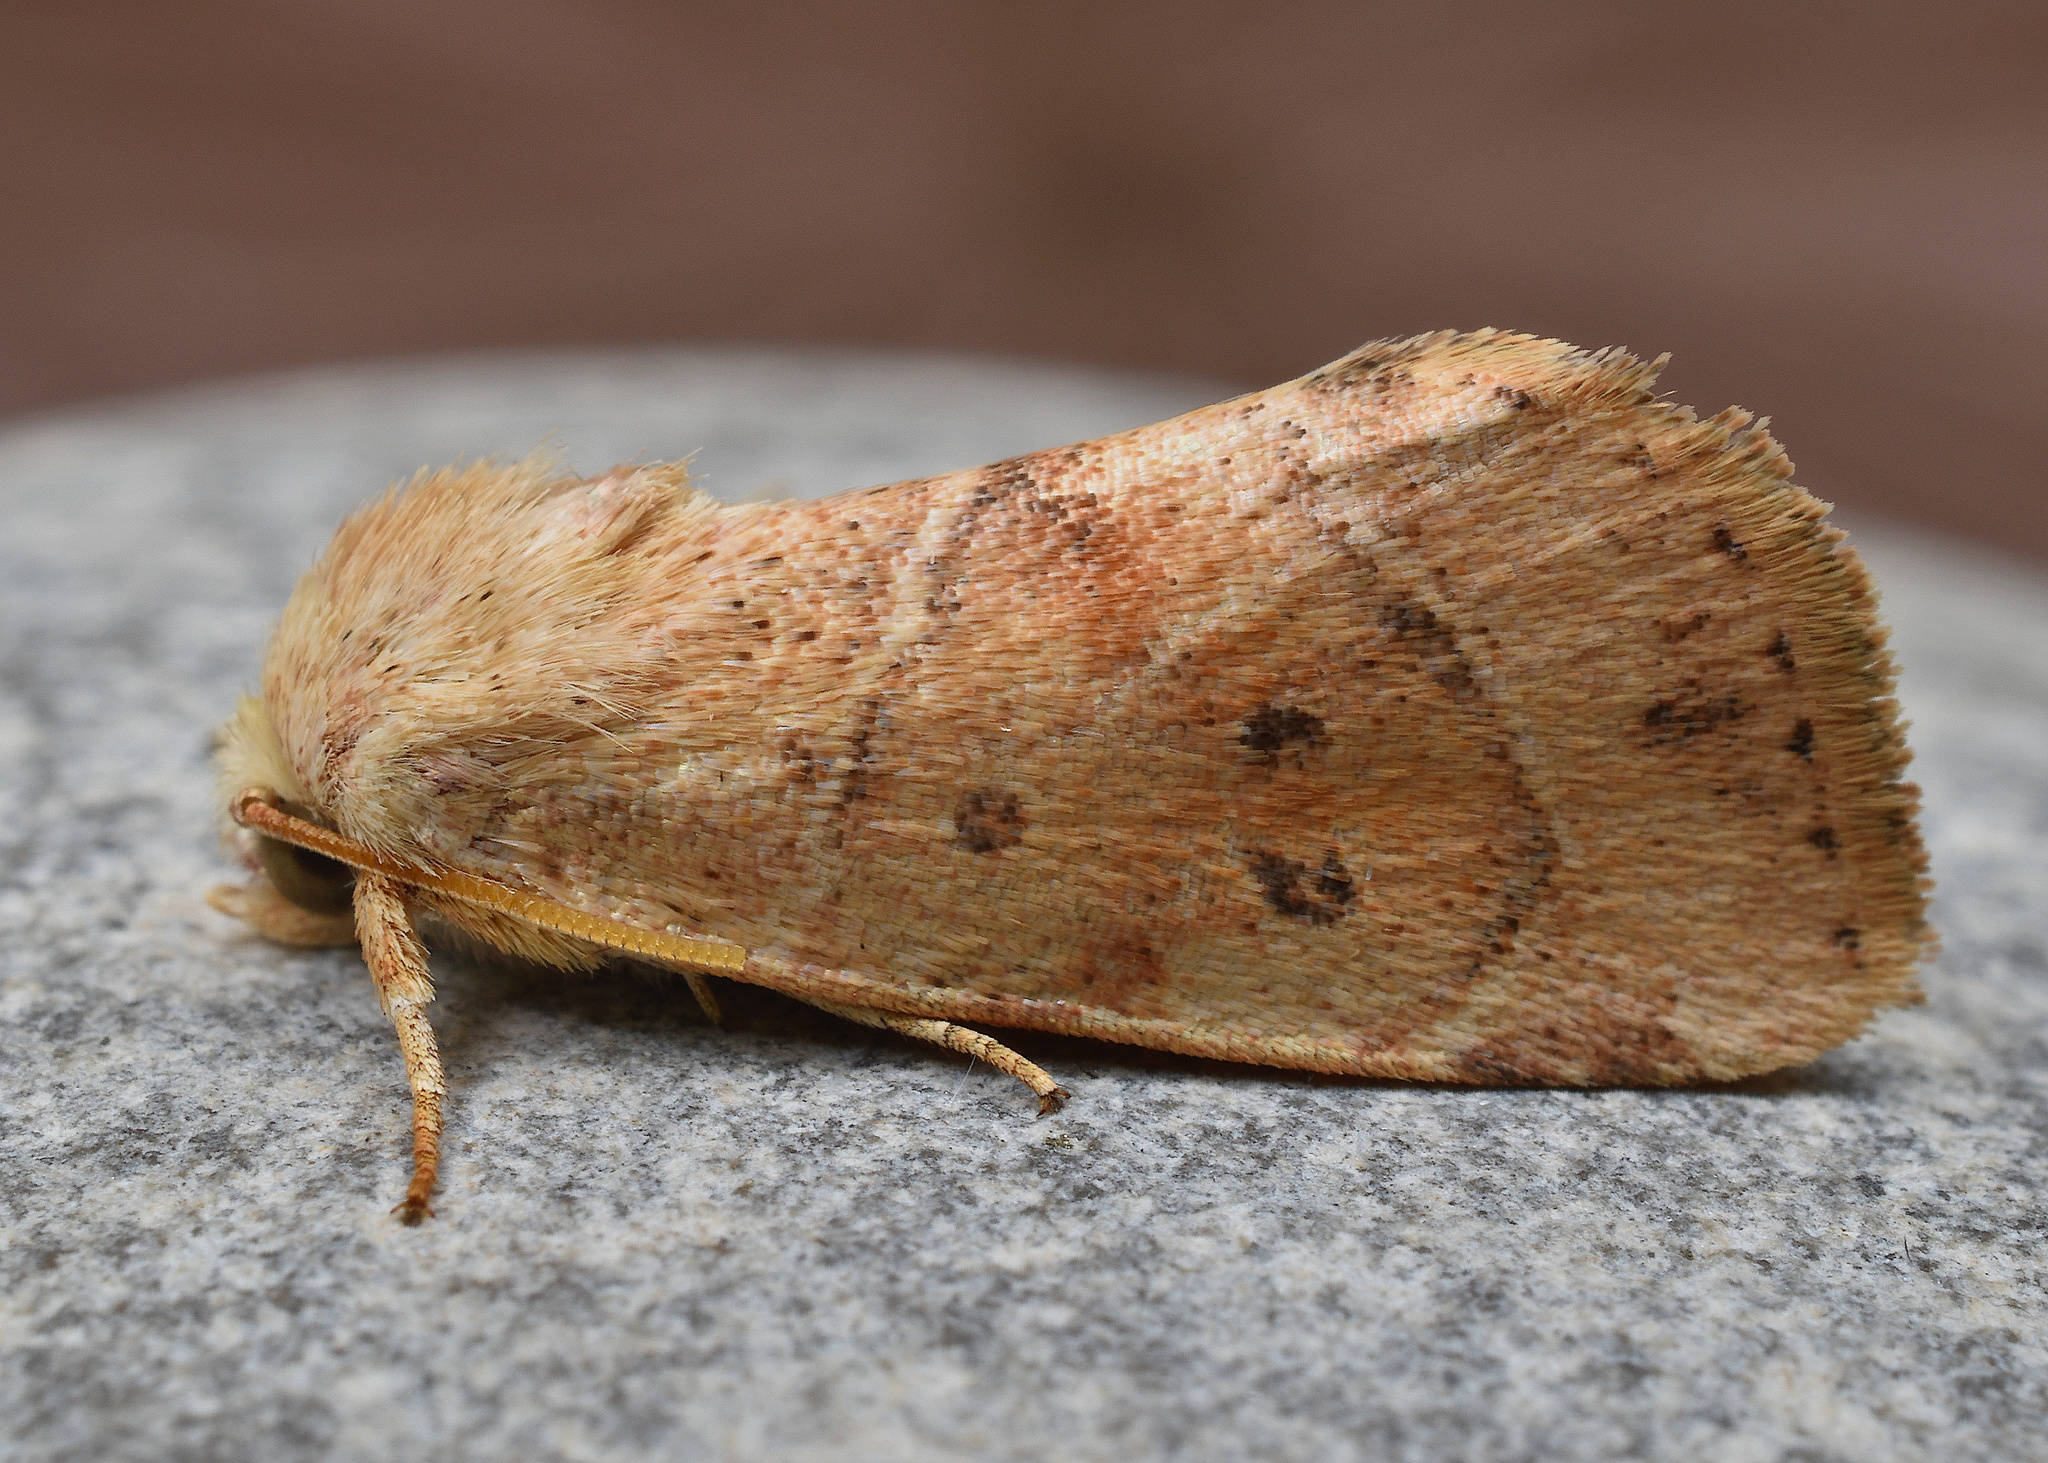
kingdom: Animalia
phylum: Arthropoda
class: Insecta
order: Lepidoptera
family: Noctuidae
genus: Cosmia
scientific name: Cosmia calami
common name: American dun-bar moth
